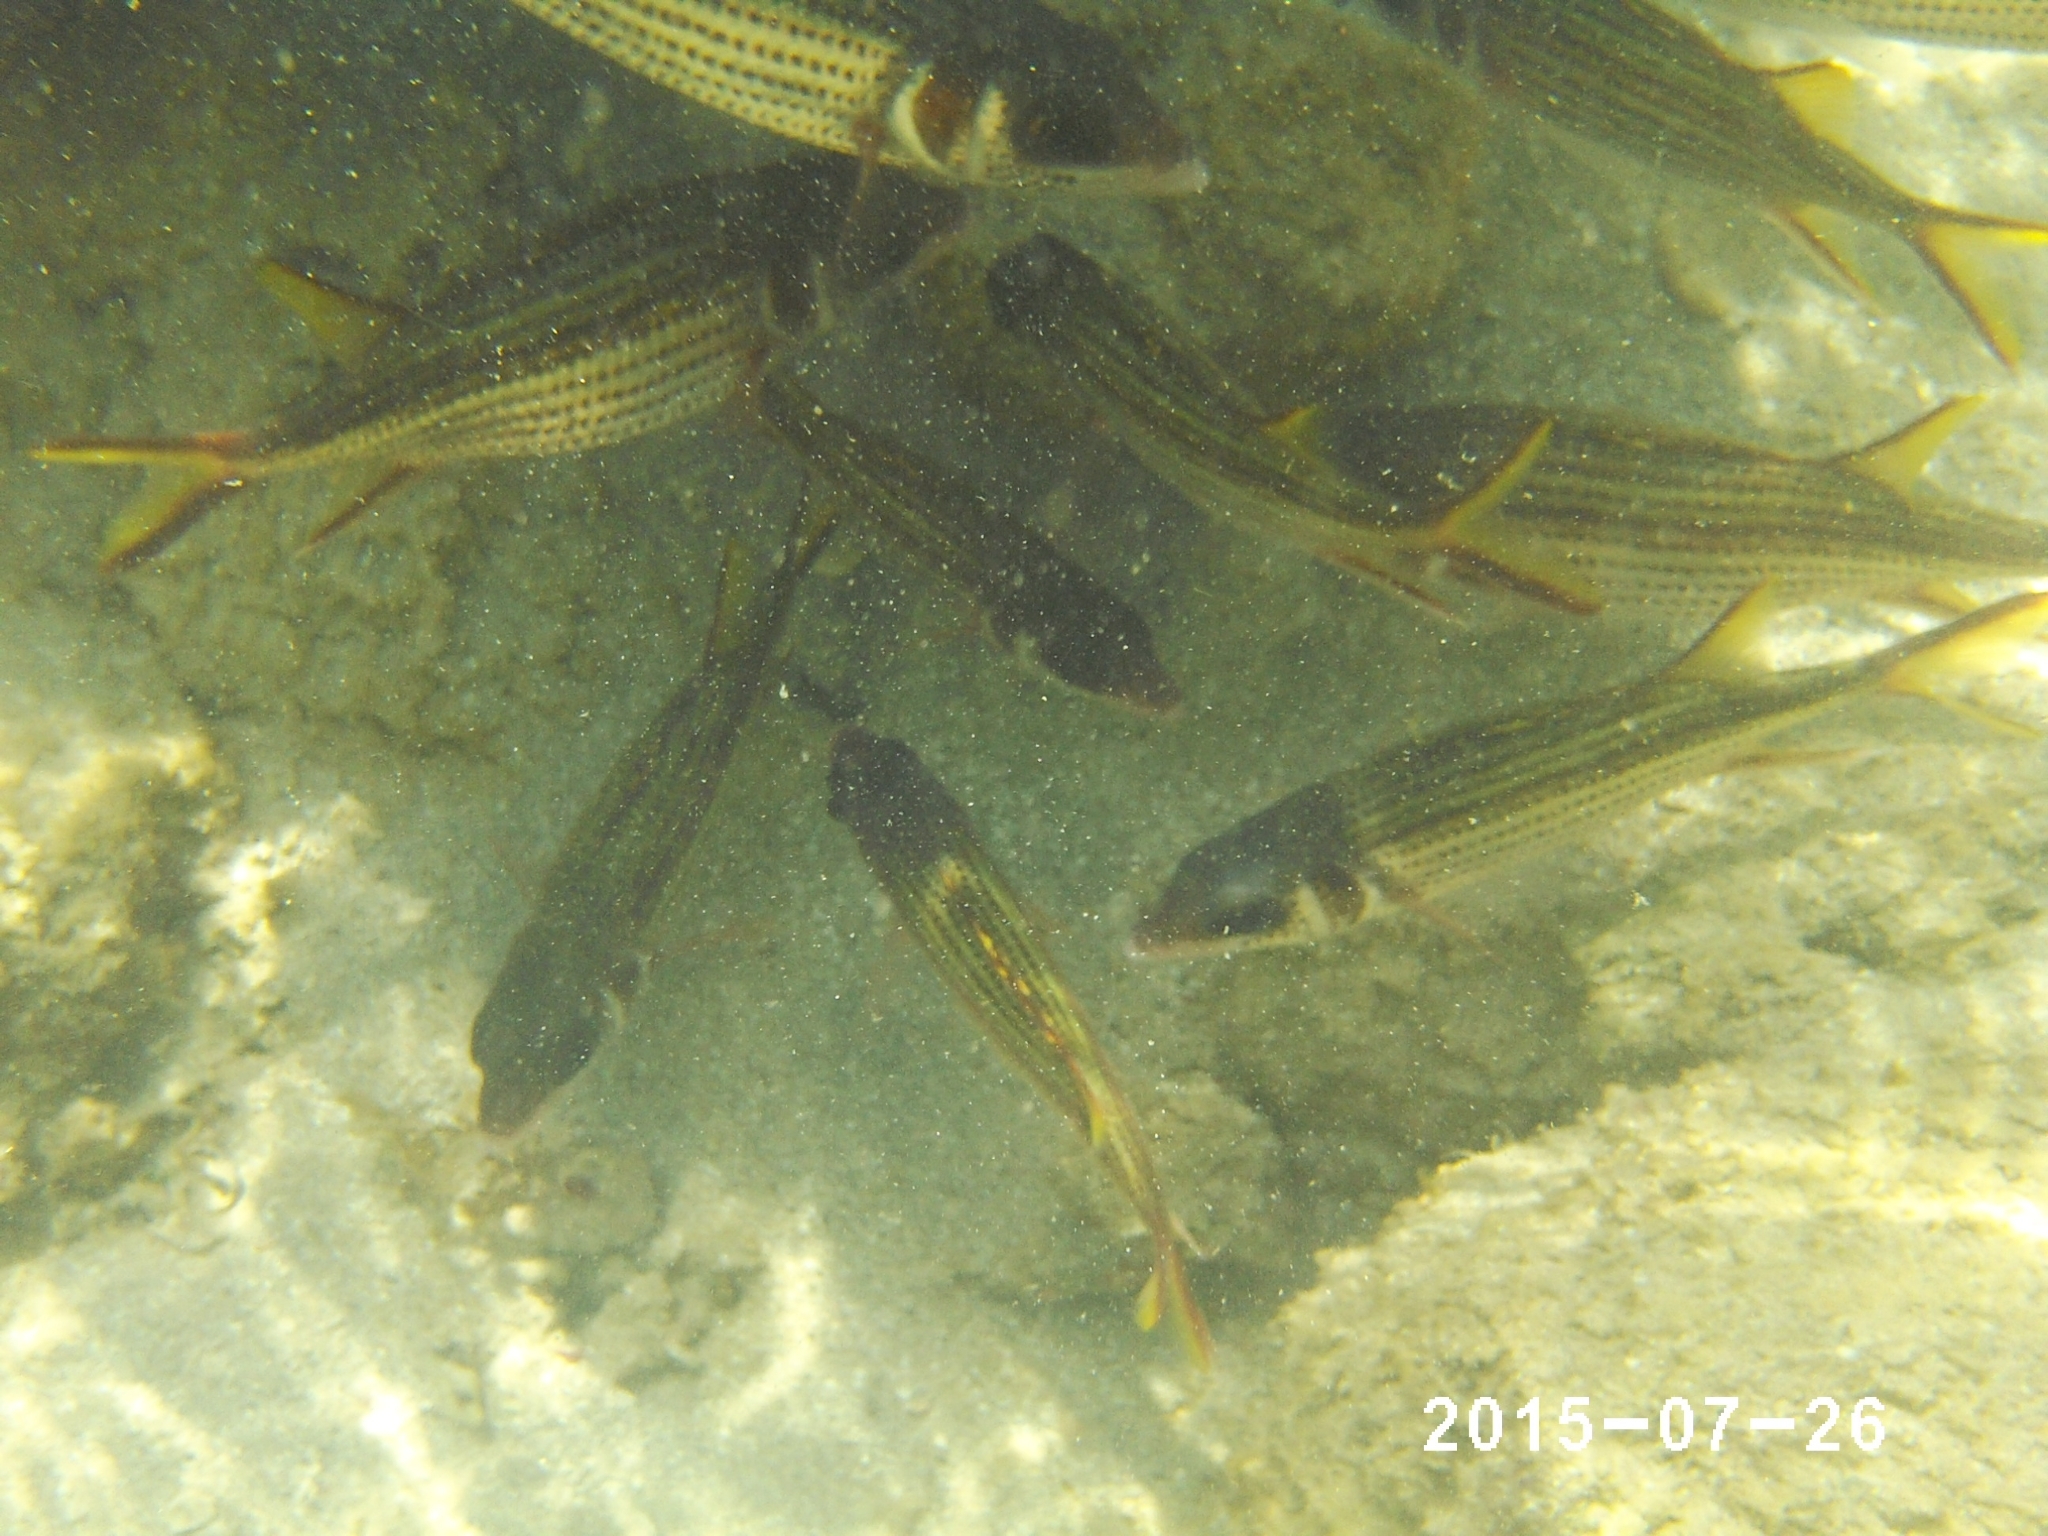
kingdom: Animalia
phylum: Chordata
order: Beryciformes
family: Holocentridae
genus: Neoniphon
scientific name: Neoniphon sammara
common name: Sammara squirrelfish
